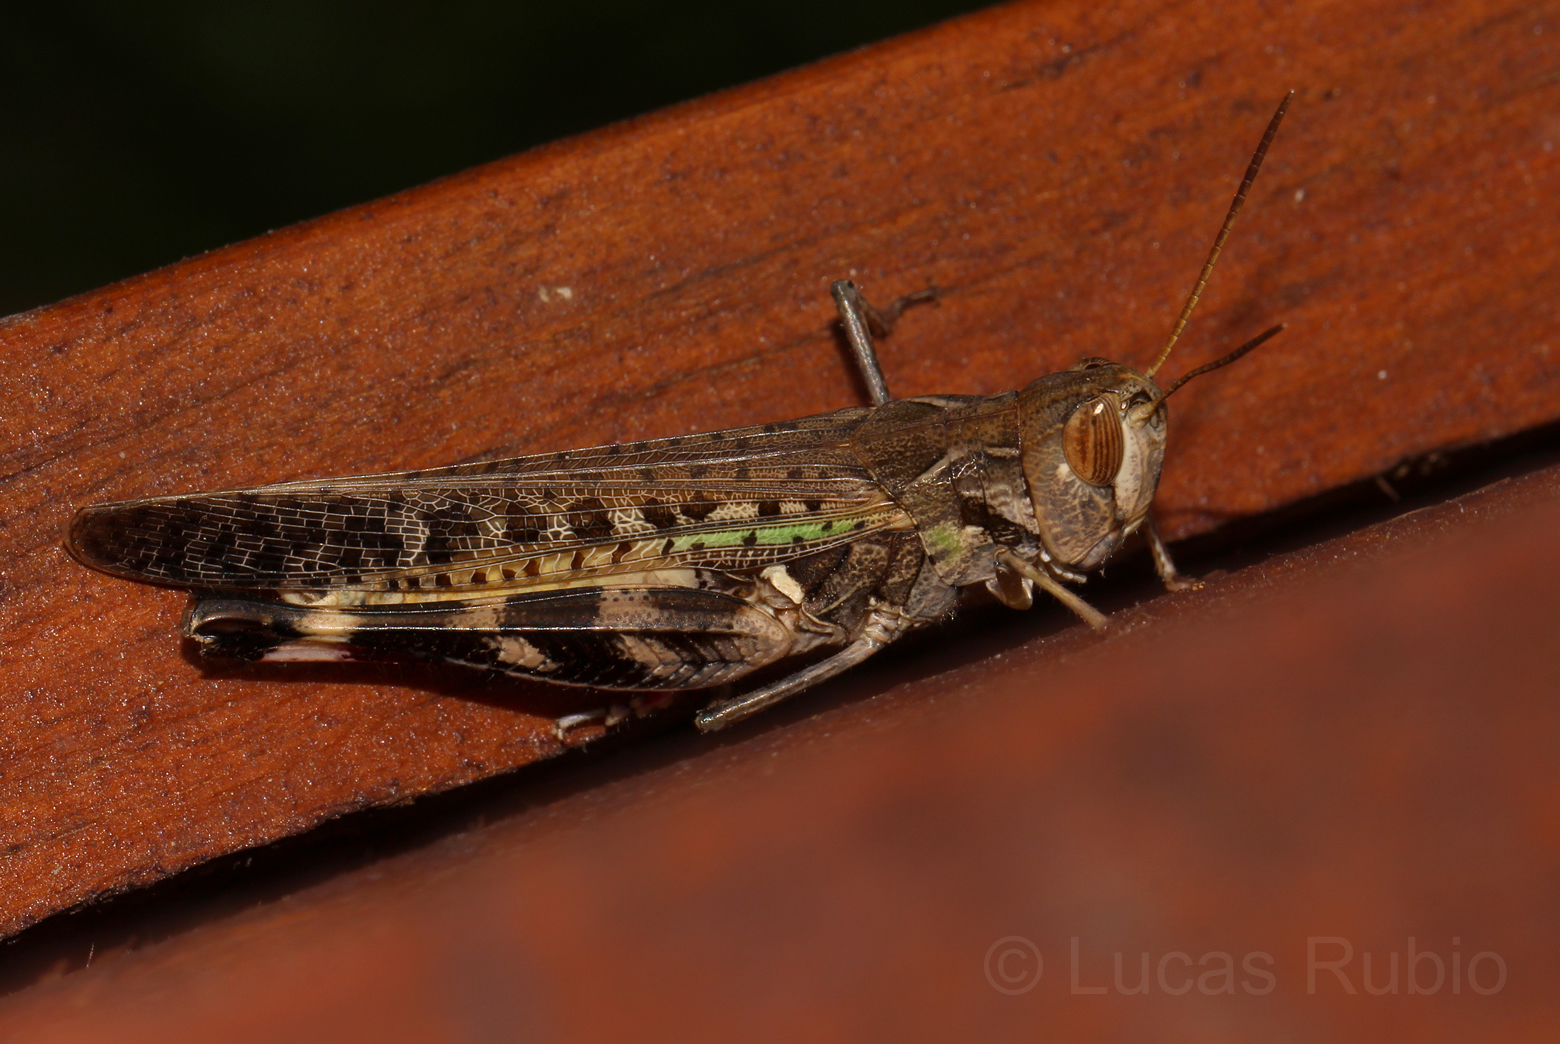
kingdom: Animalia
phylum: Arthropoda
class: Insecta
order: Orthoptera
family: Acrididae
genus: Rhammatocerus
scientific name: Rhammatocerus pictus
